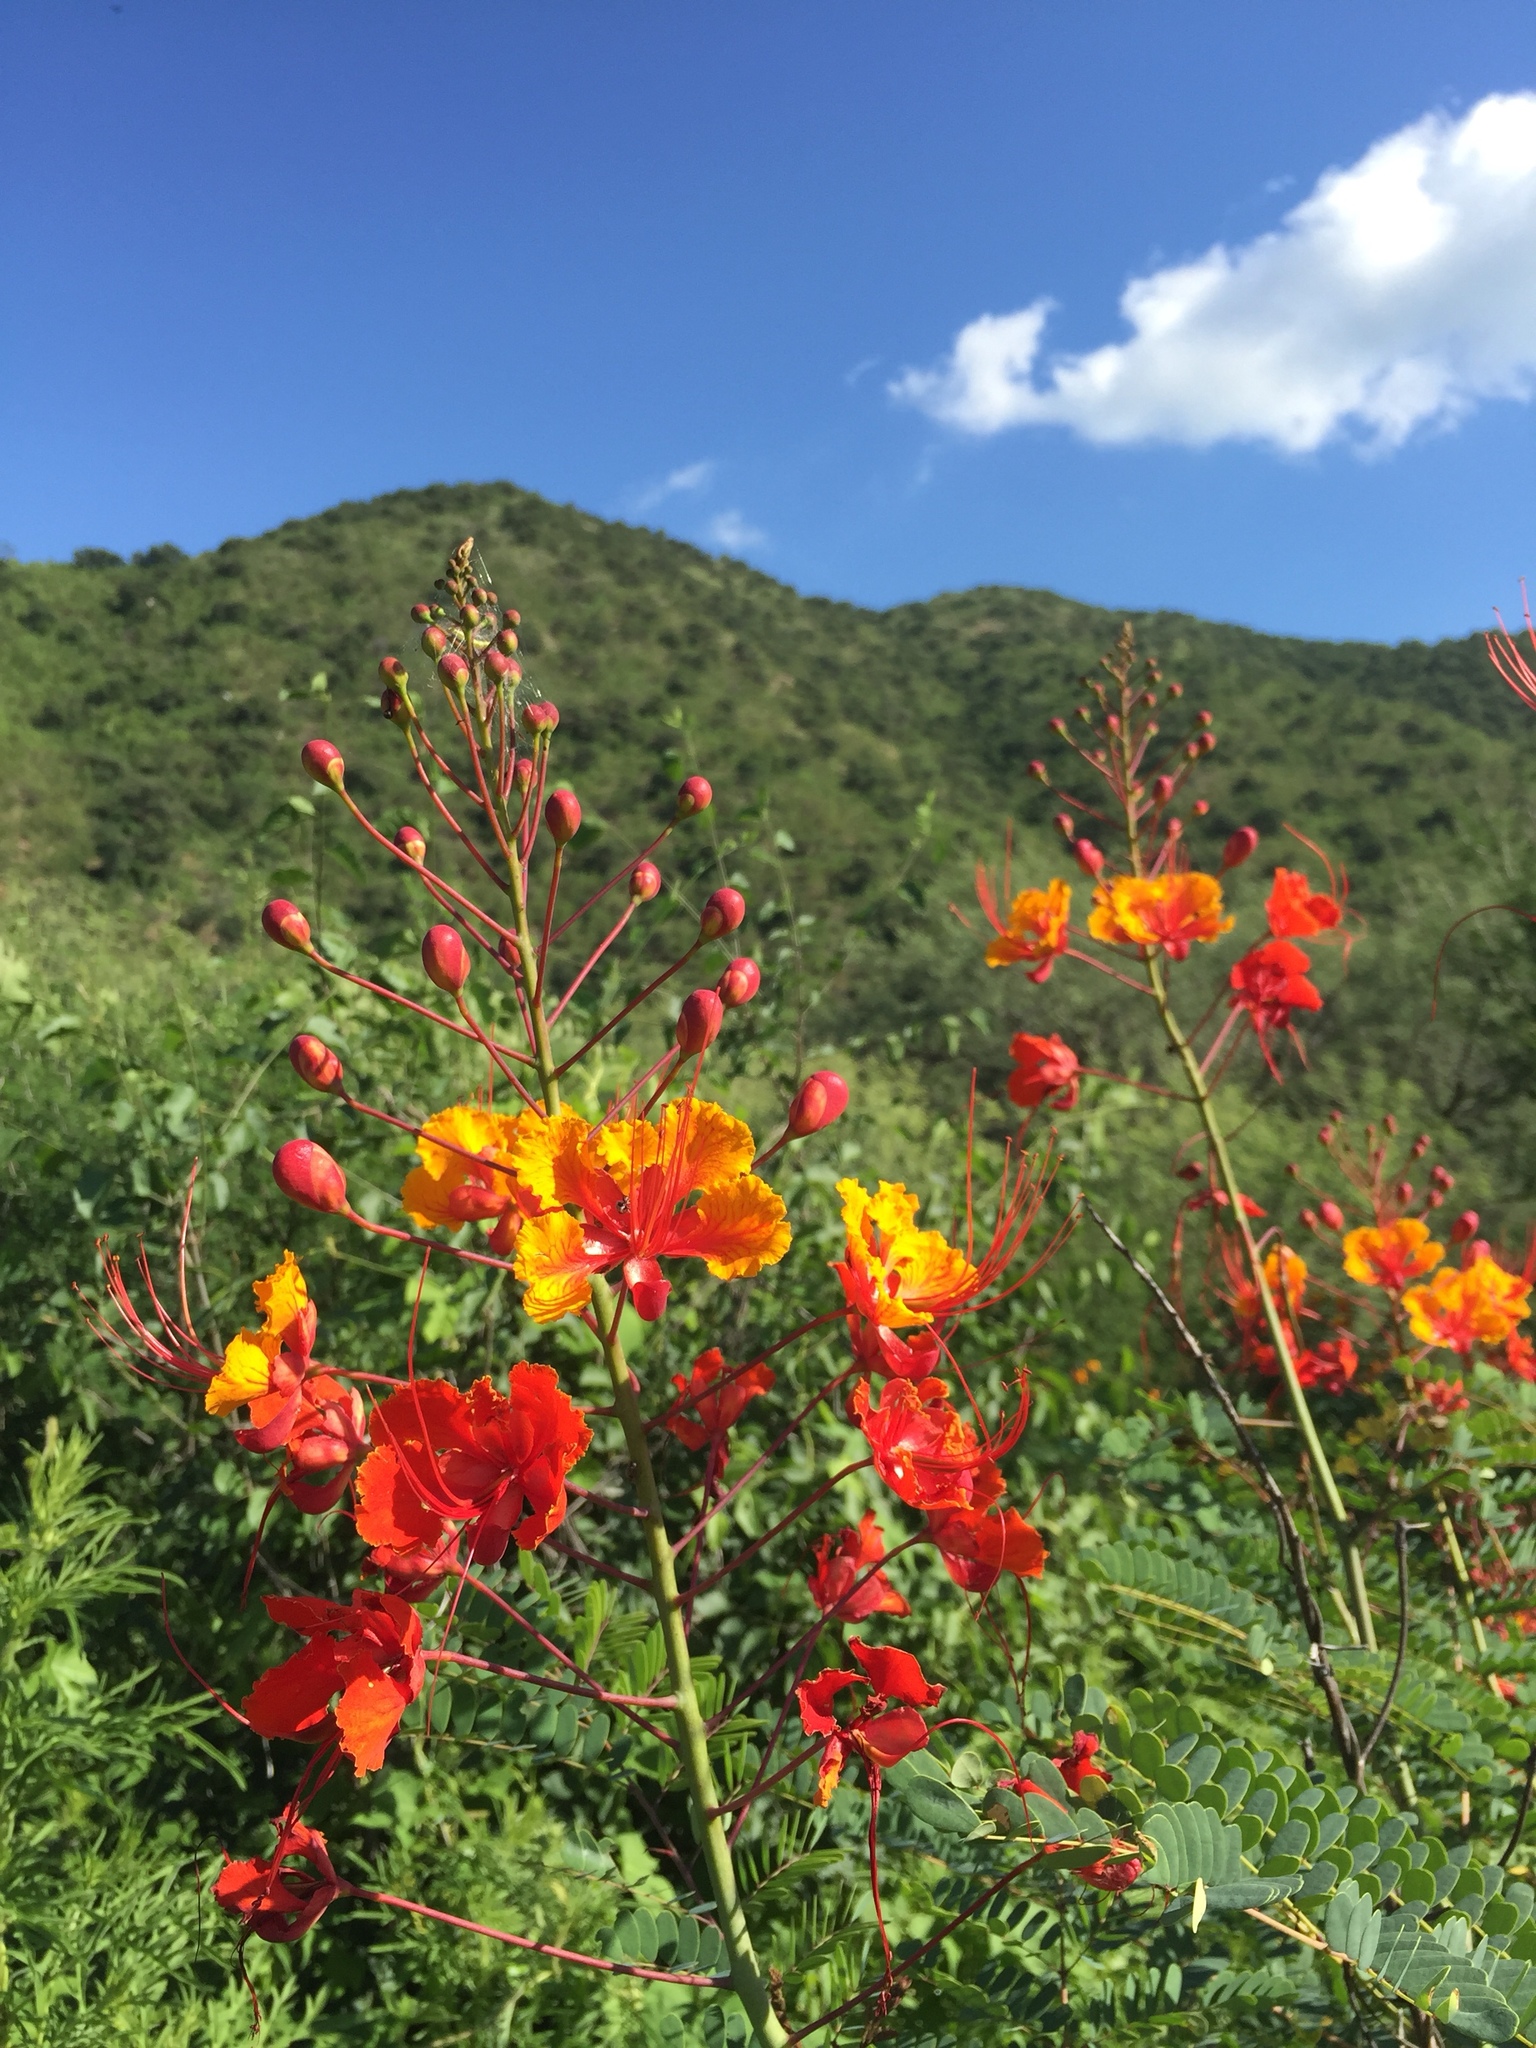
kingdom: Plantae
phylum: Tracheophyta
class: Magnoliopsida
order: Fabales
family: Fabaceae
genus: Caesalpinia
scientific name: Caesalpinia pulcherrima
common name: Pride-of-barbados
